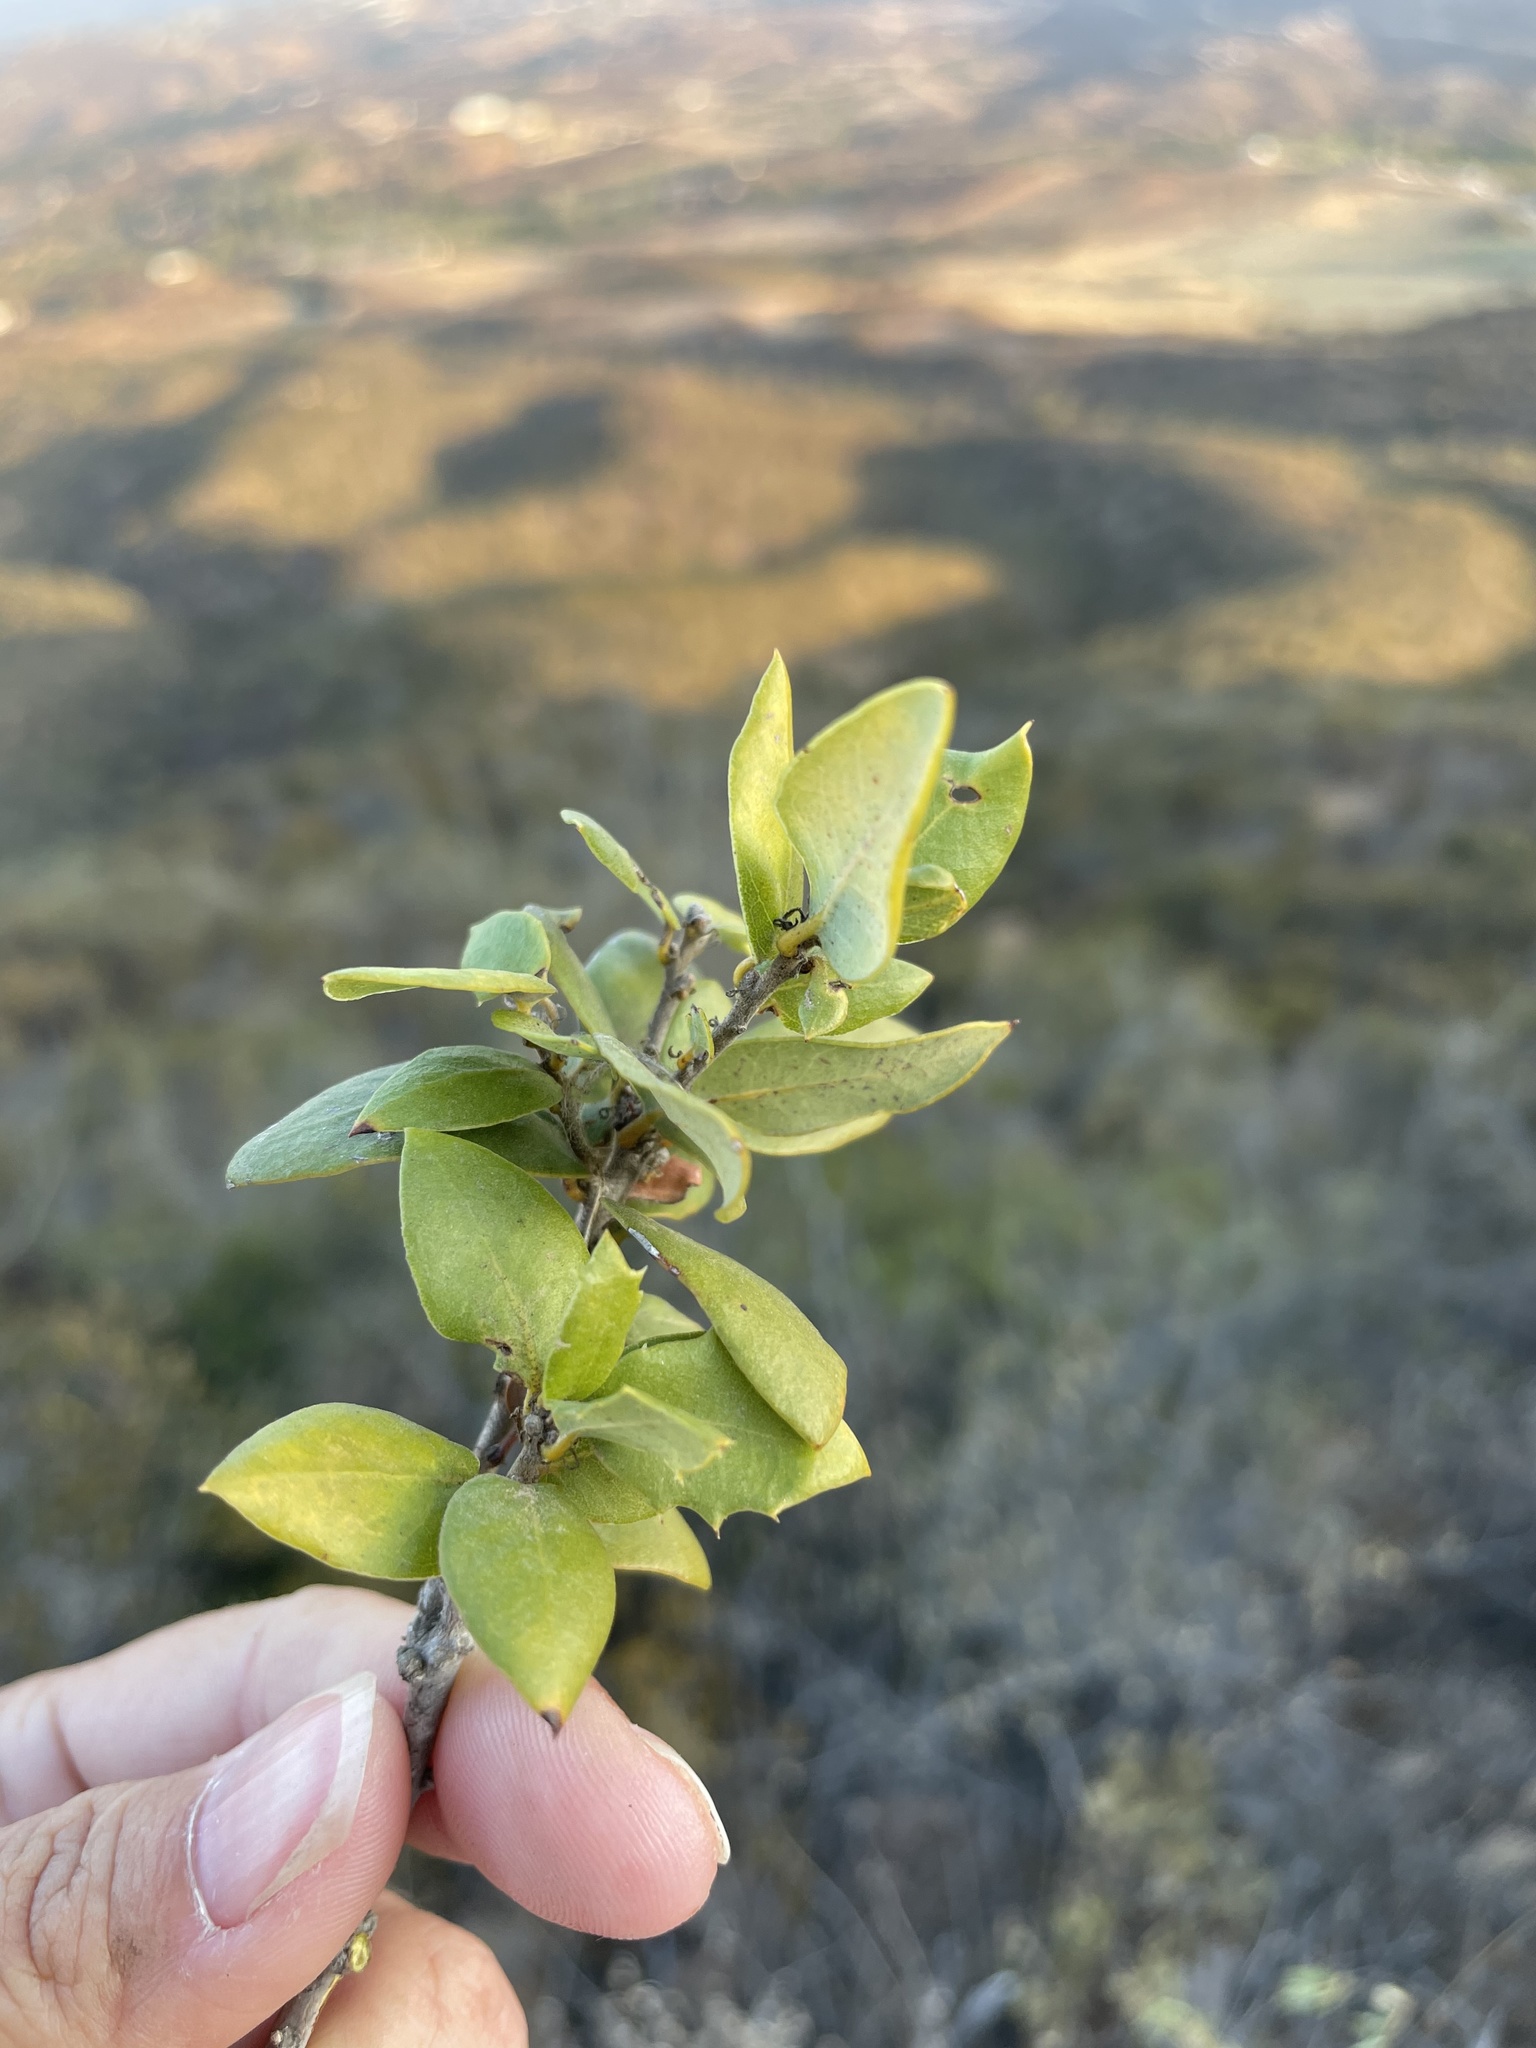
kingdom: Plantae
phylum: Tracheophyta
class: Magnoliopsida
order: Fagales
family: Fagaceae
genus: Quercus
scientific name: Quercus cedrosensis
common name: Cedros island oak
